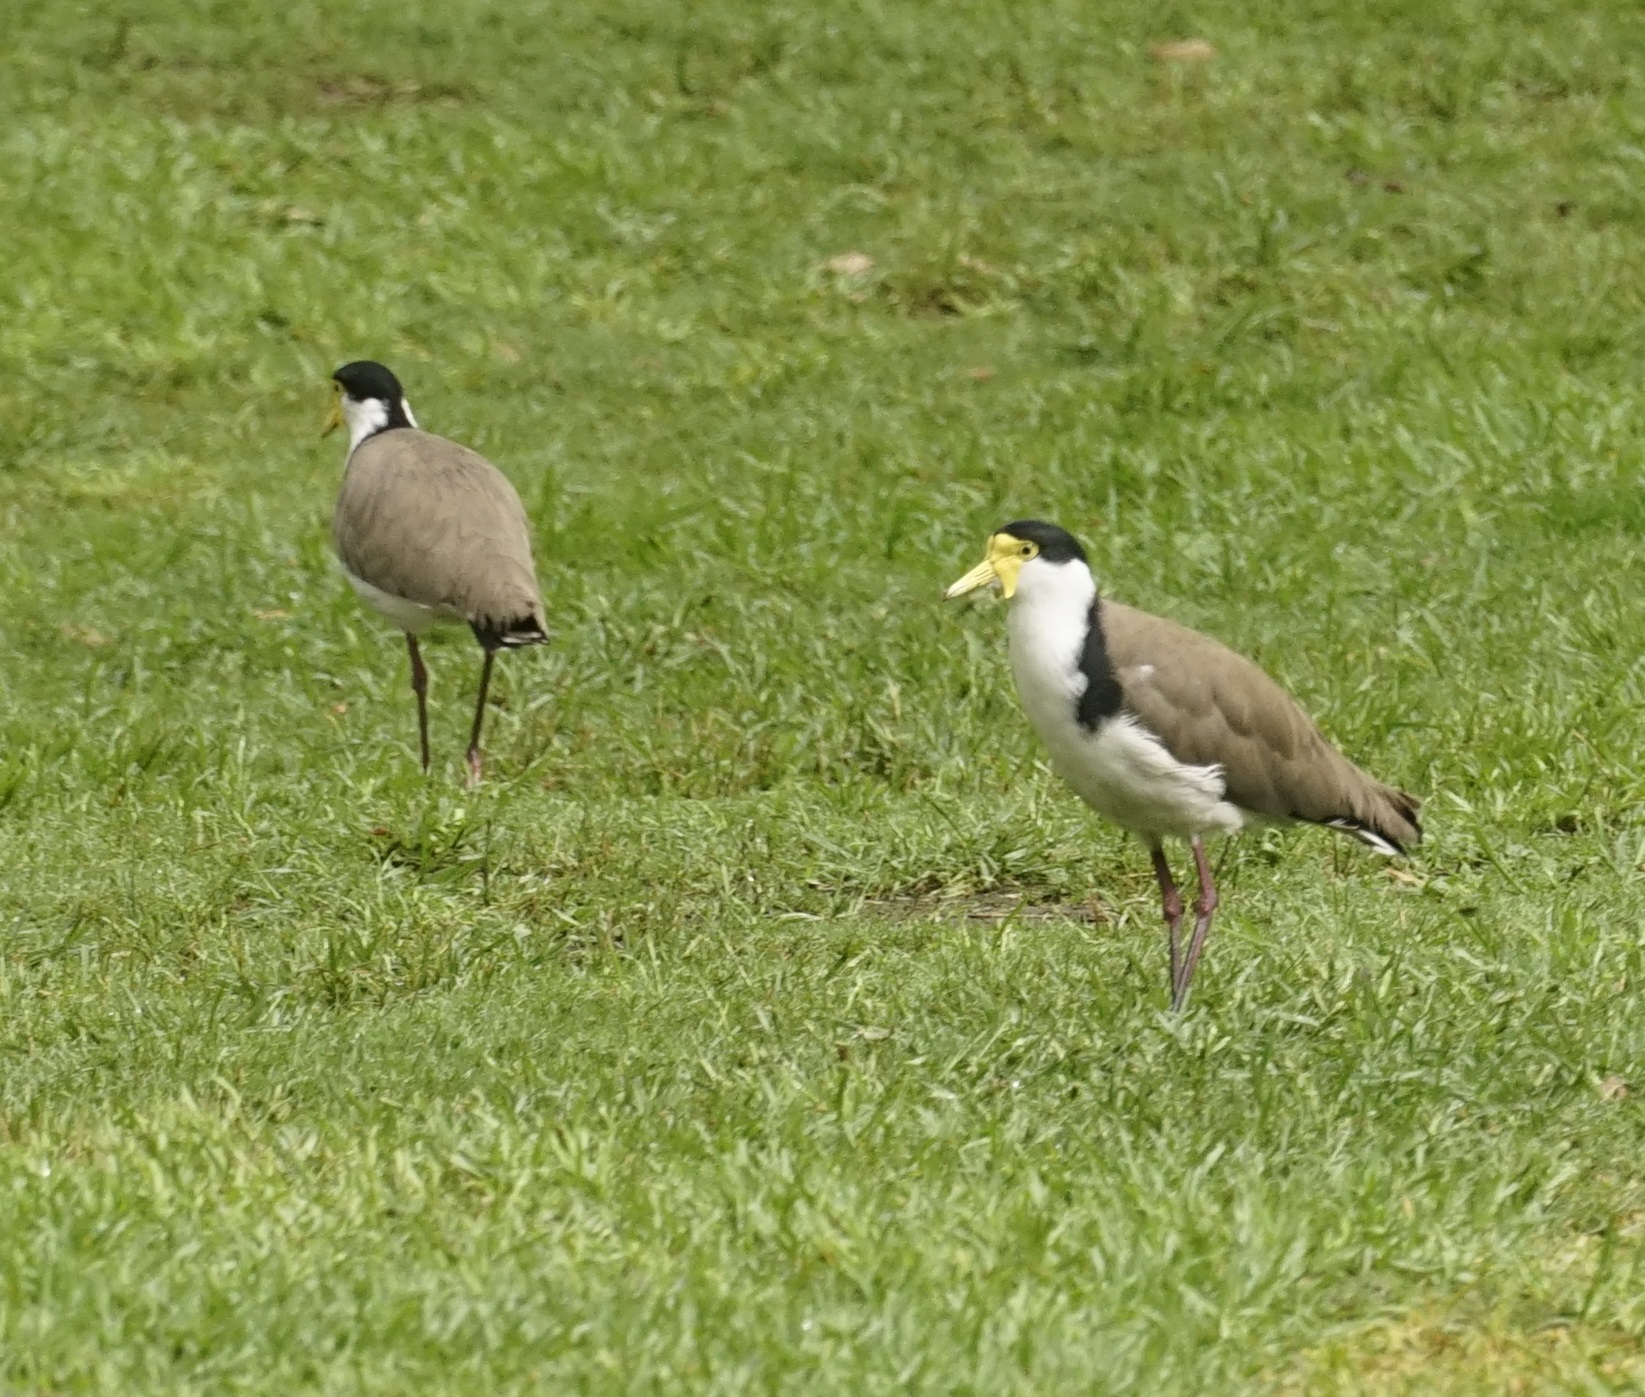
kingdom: Animalia
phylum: Chordata
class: Aves
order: Charadriiformes
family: Charadriidae
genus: Vanellus
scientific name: Vanellus miles
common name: Masked lapwing
